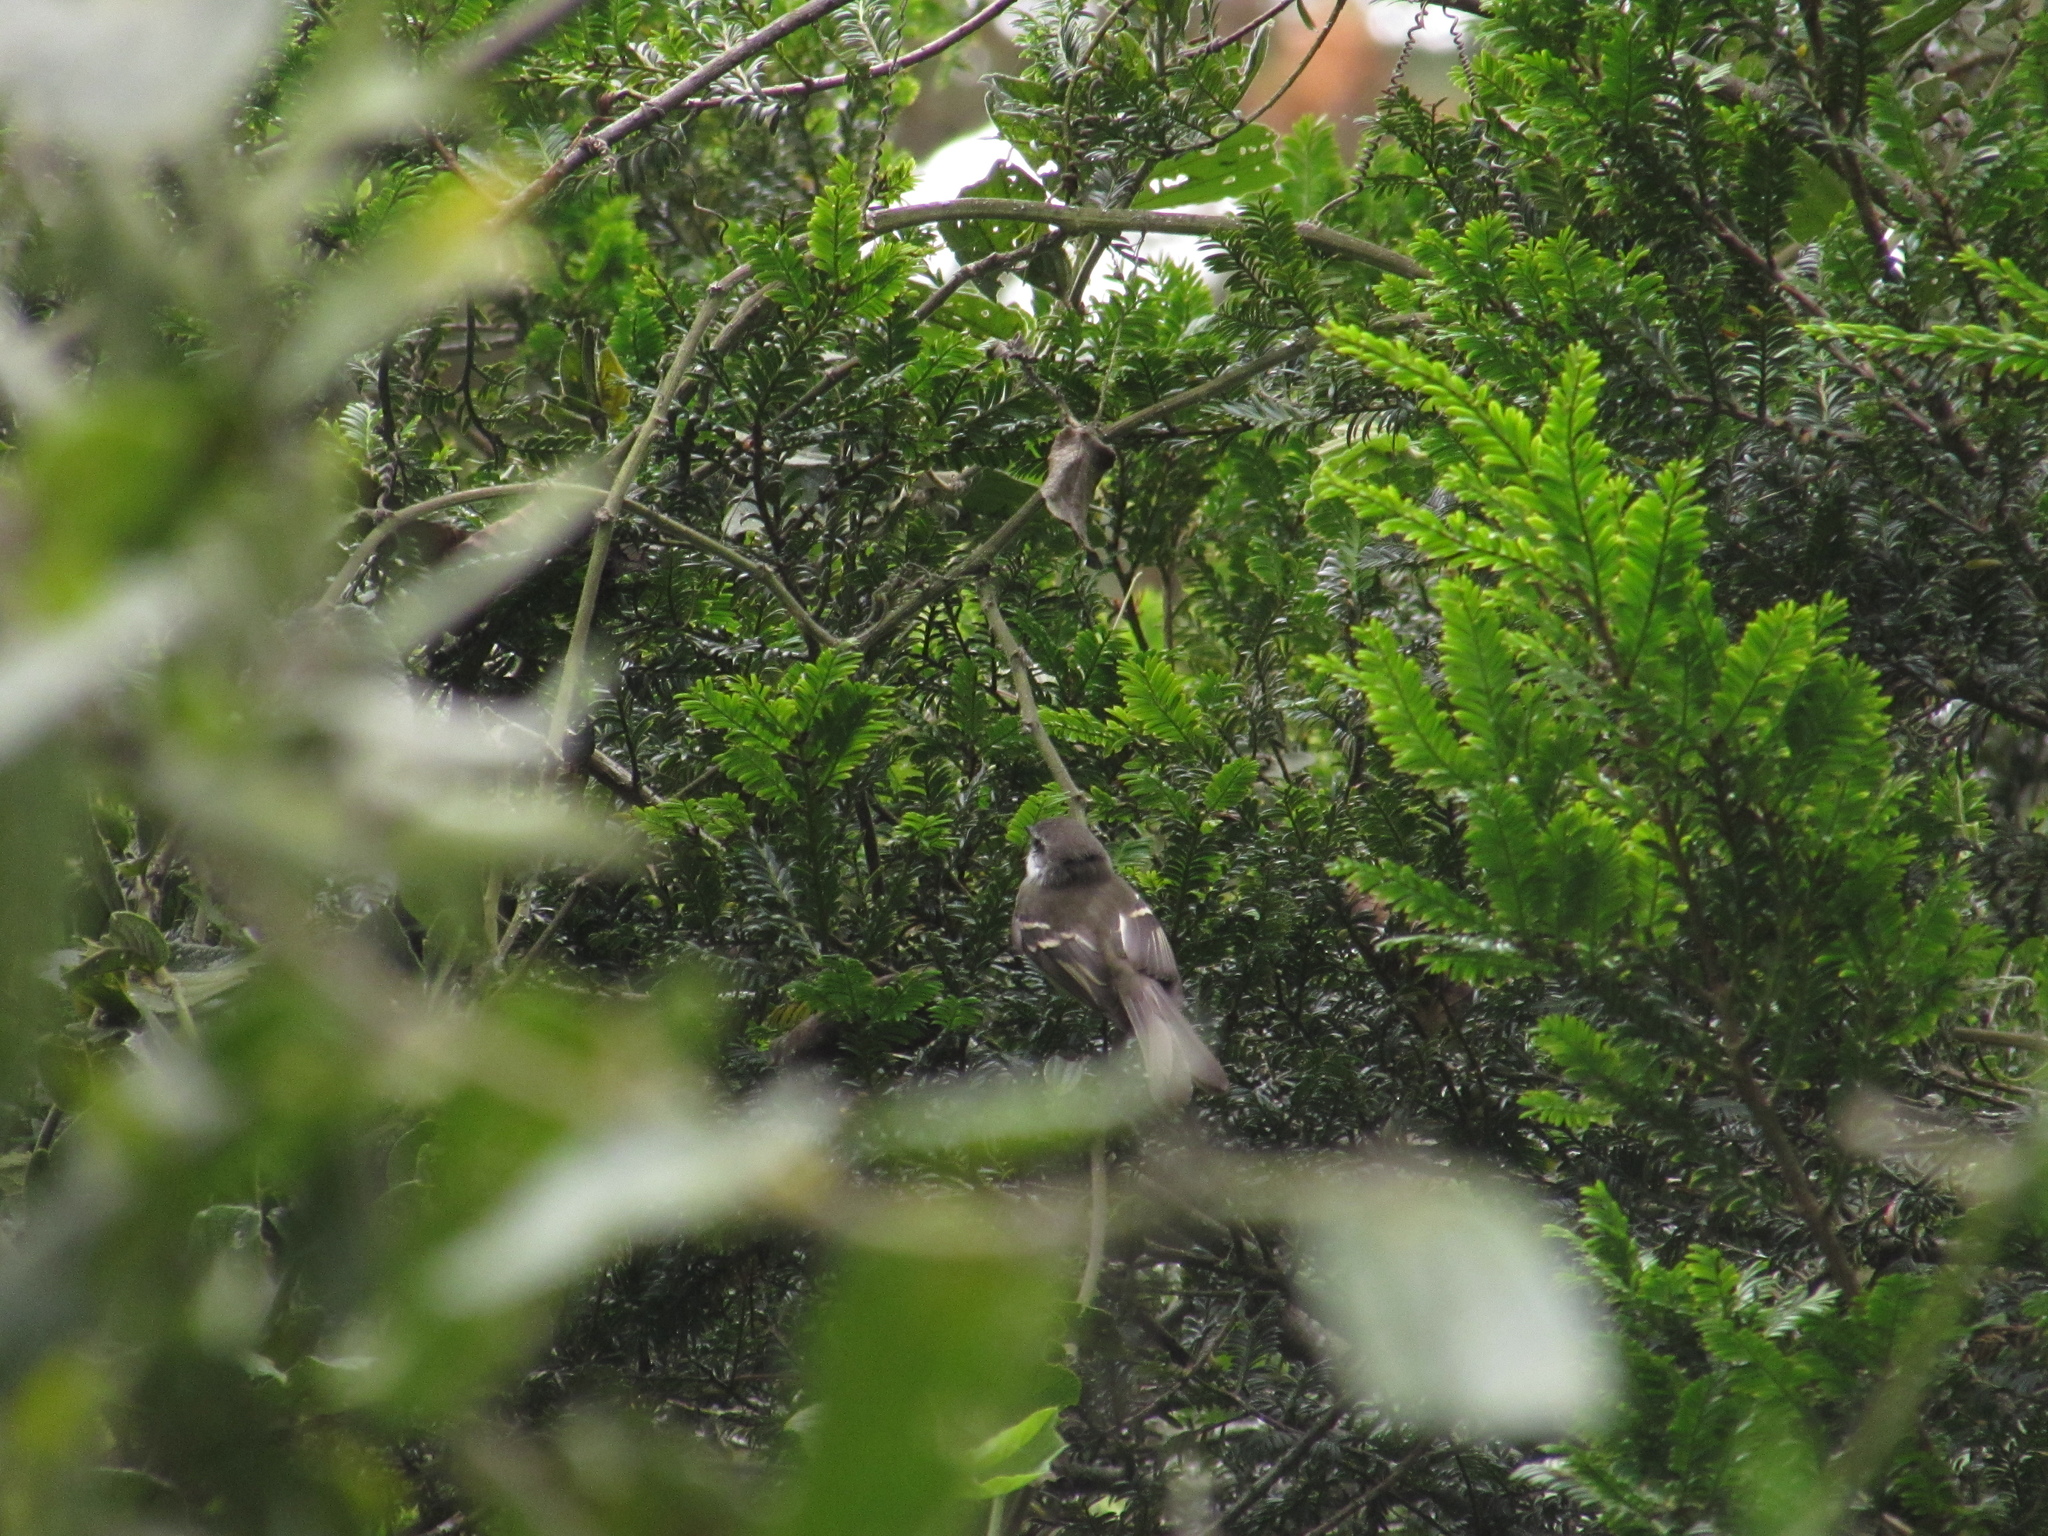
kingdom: Animalia
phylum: Chordata
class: Aves
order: Passeriformes
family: Tyrannidae
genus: Mecocerculus
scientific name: Mecocerculus leucophrys
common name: White-throated tyrannulet
